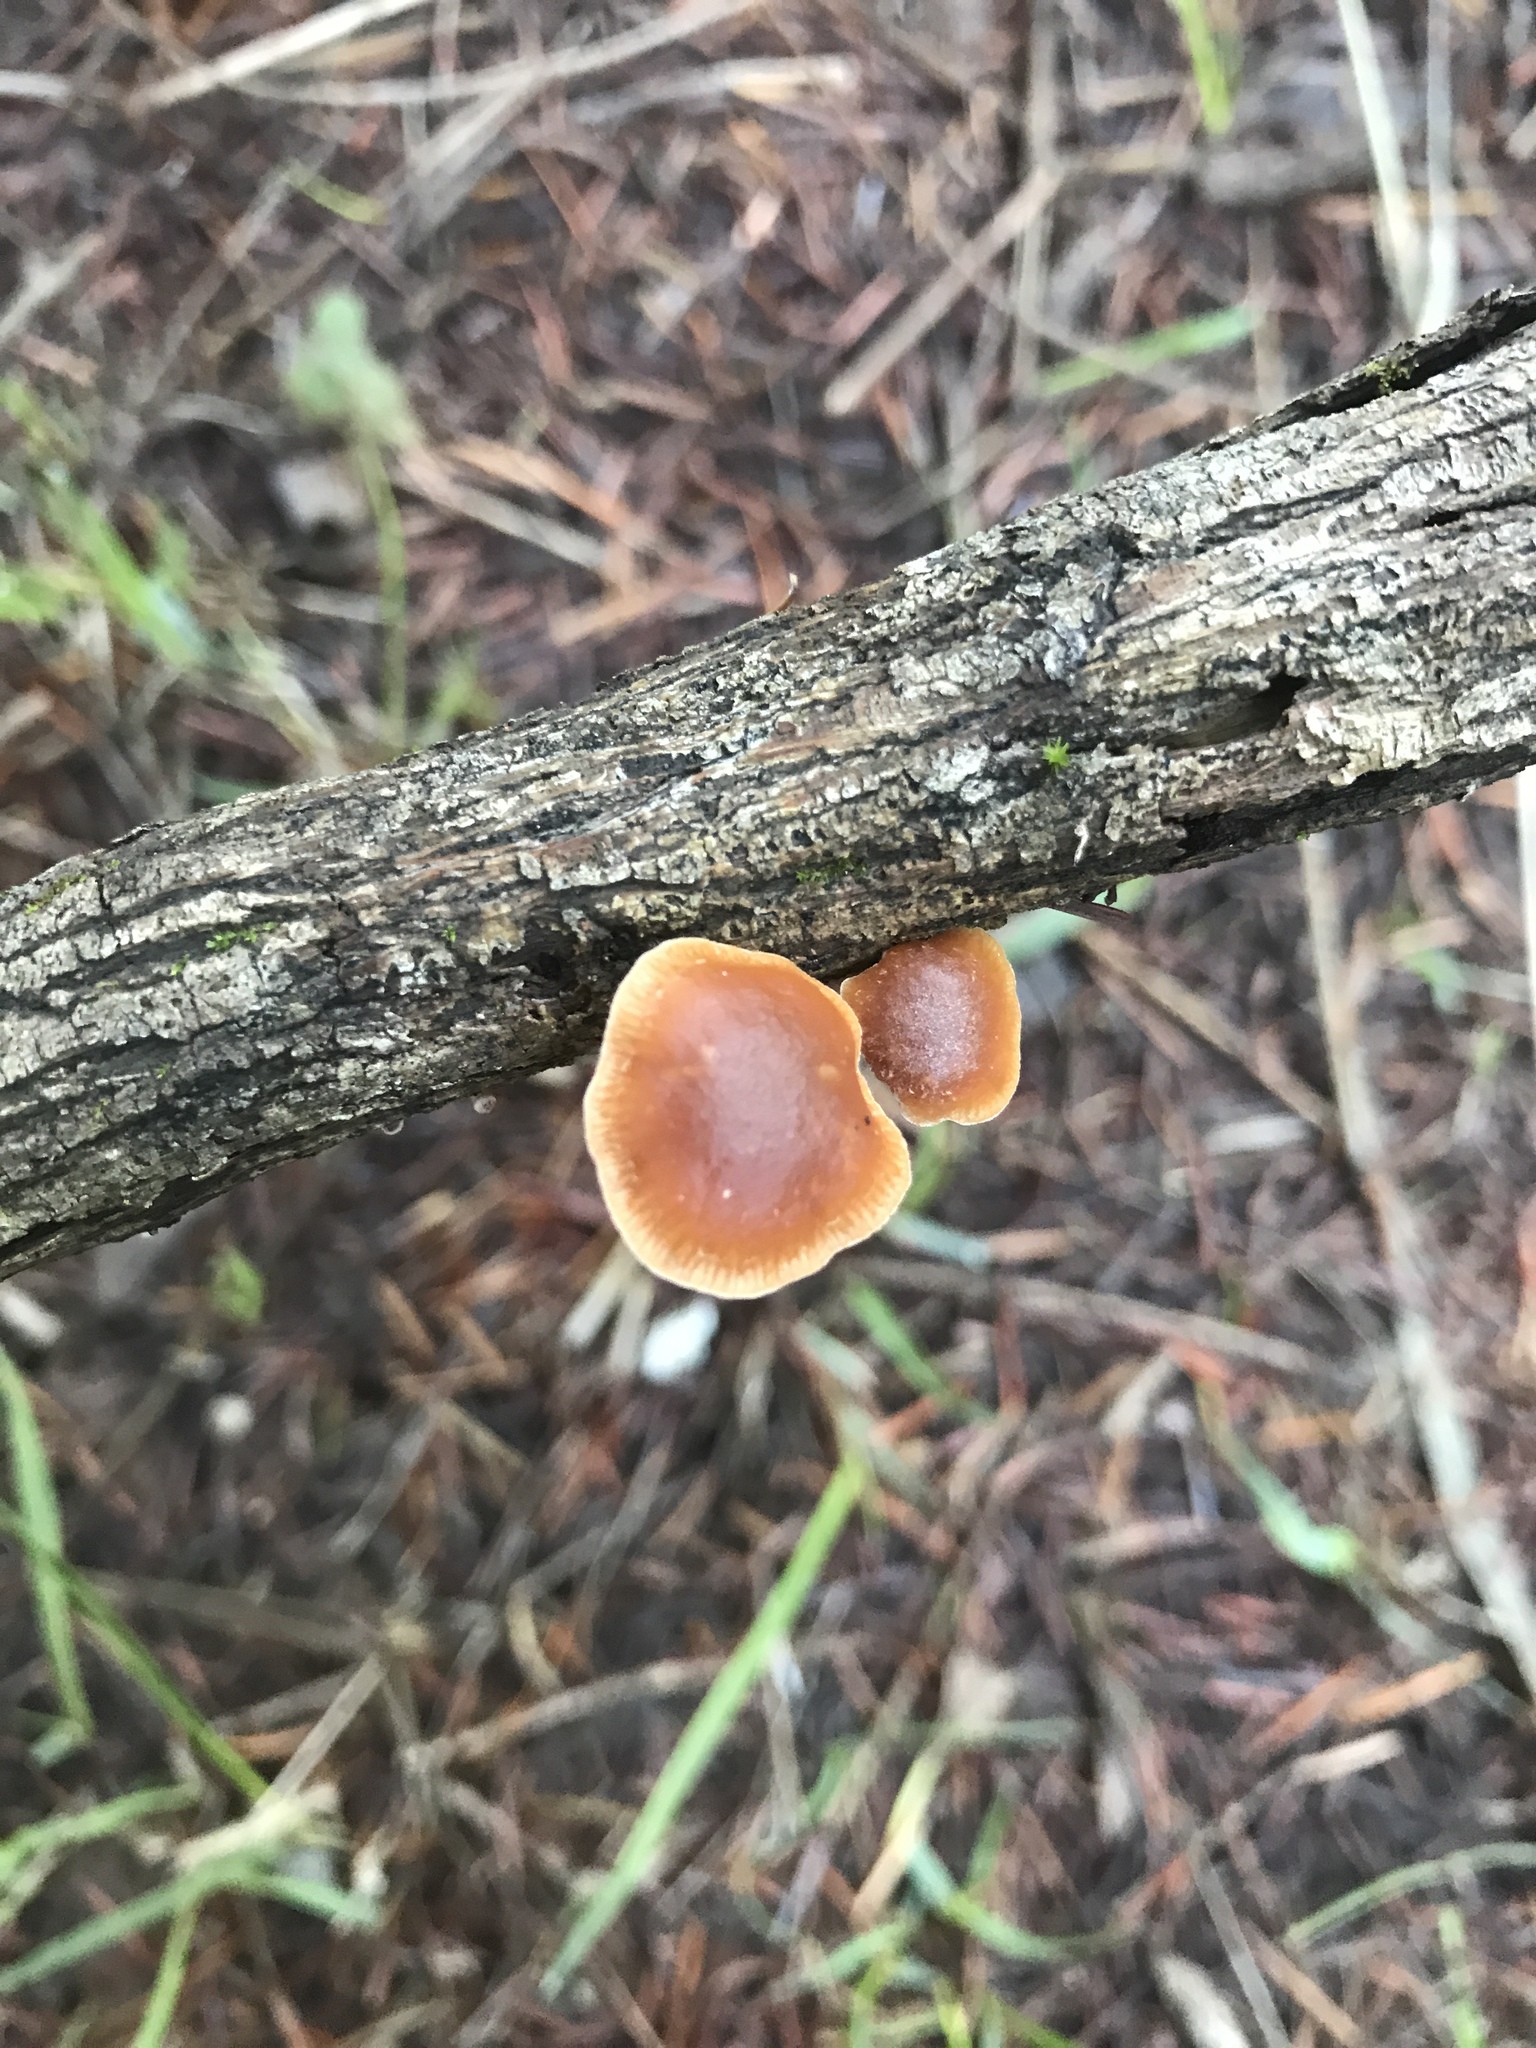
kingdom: Fungi
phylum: Basidiomycota
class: Agaricomycetes
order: Agaricales
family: Tubariaceae
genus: Tubaria
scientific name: Tubaria
